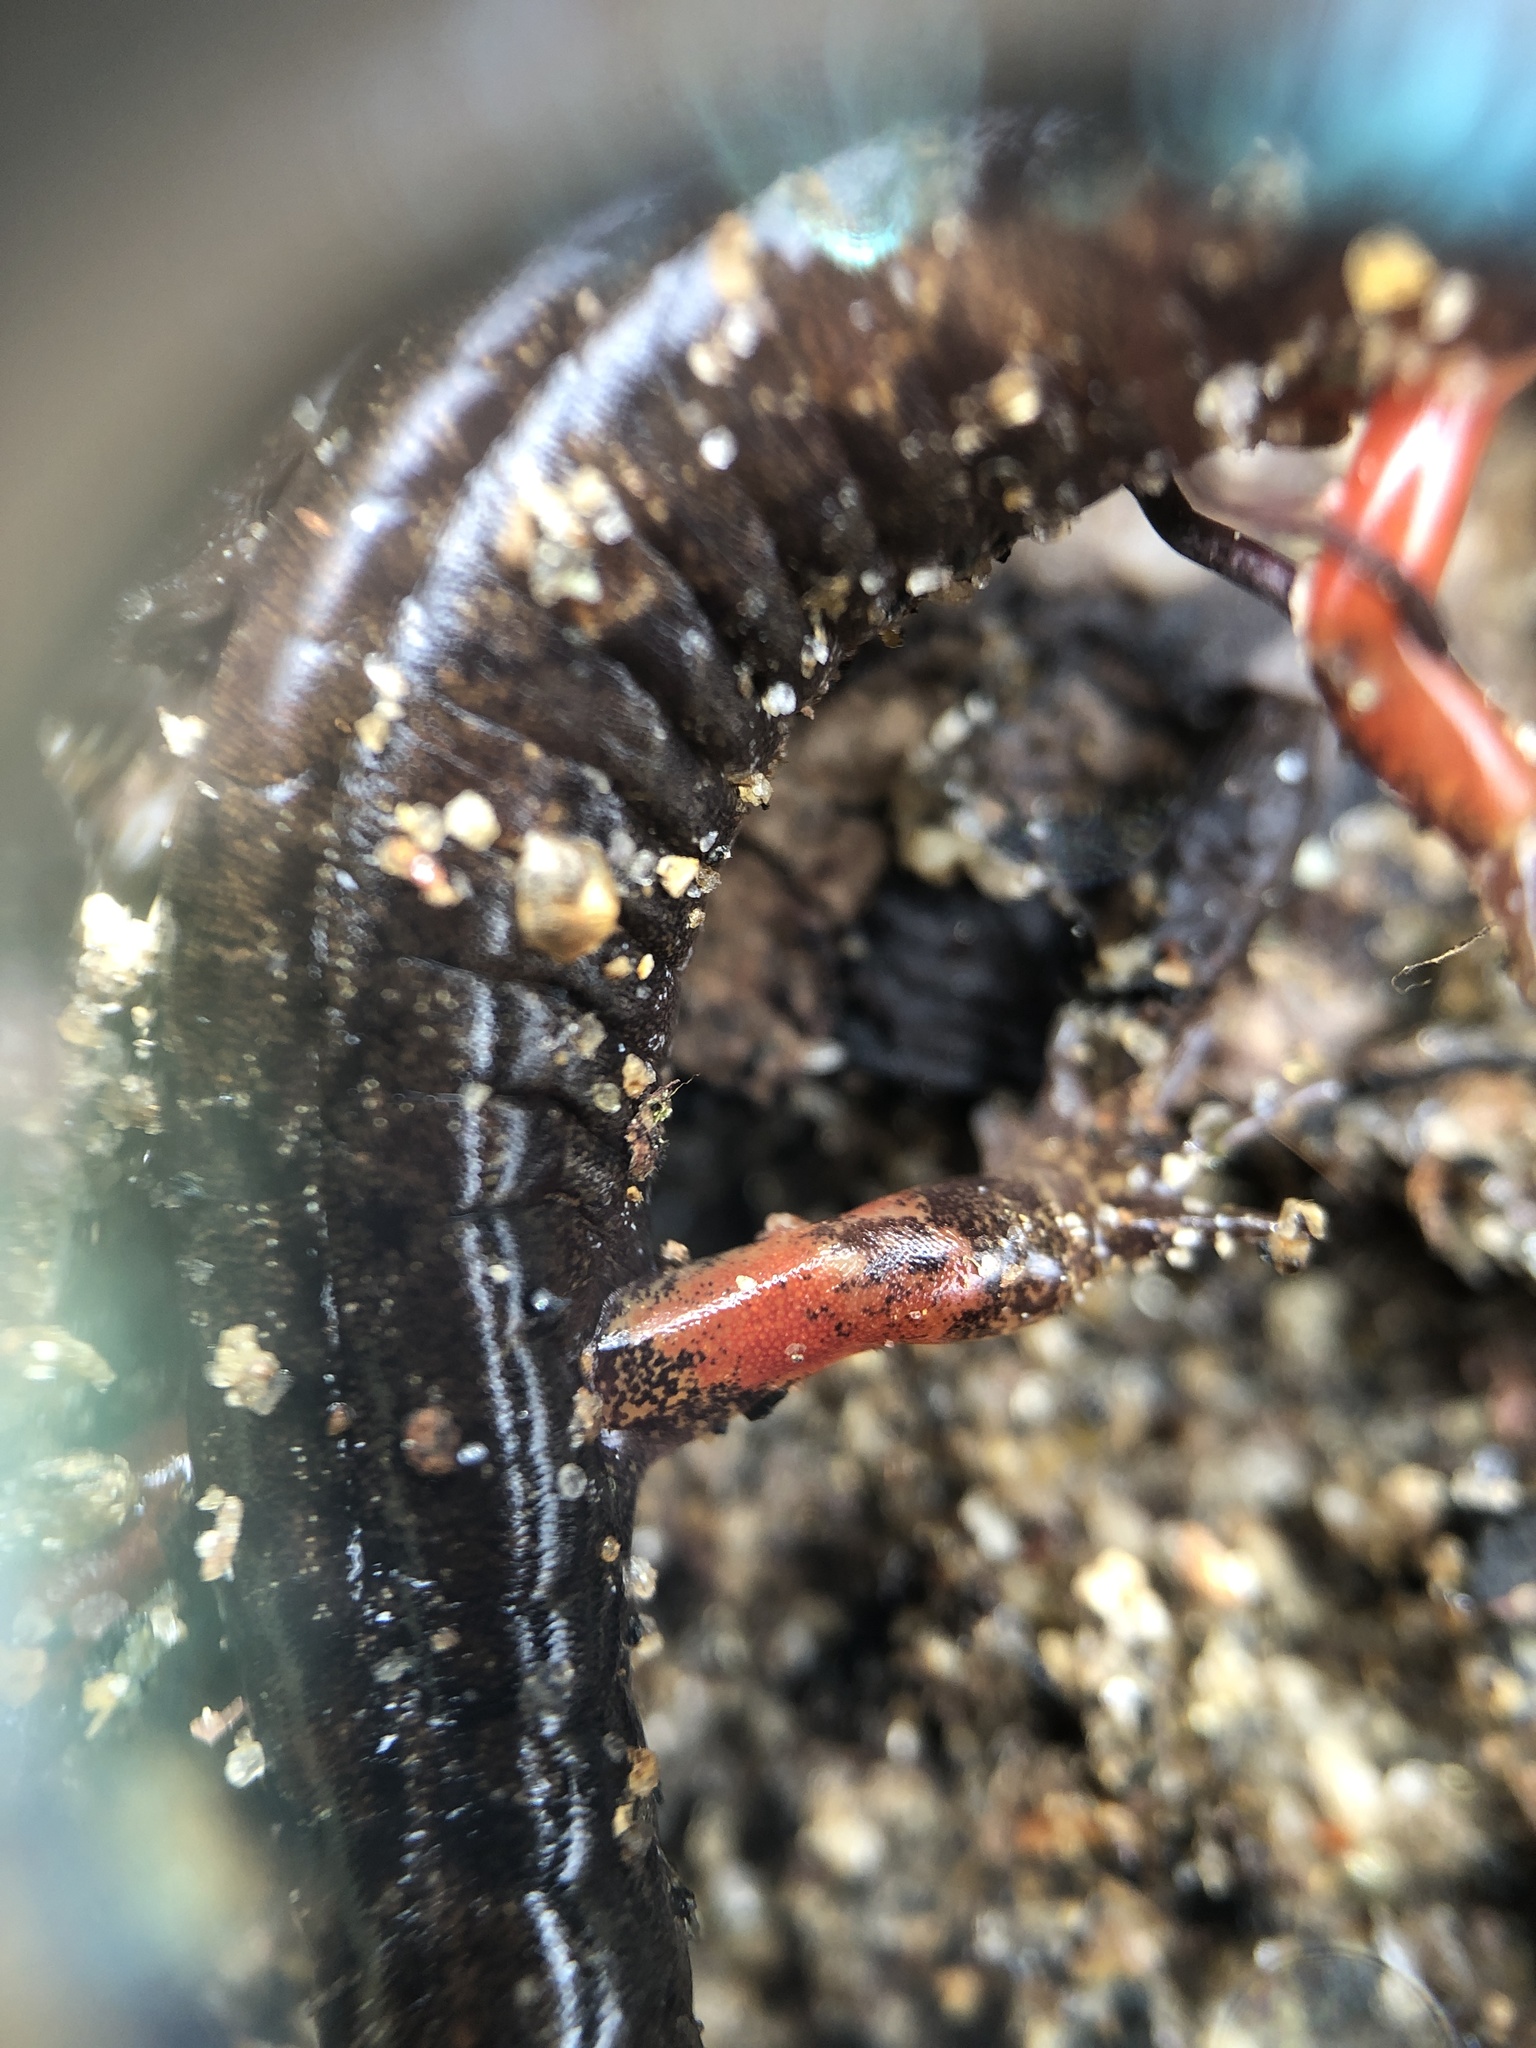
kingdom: Animalia
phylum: Chordata
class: Amphibia
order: Caudata
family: Plethodontidae
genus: Desmognathus
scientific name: Desmognathus ocoee
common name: Ocoee salamander
